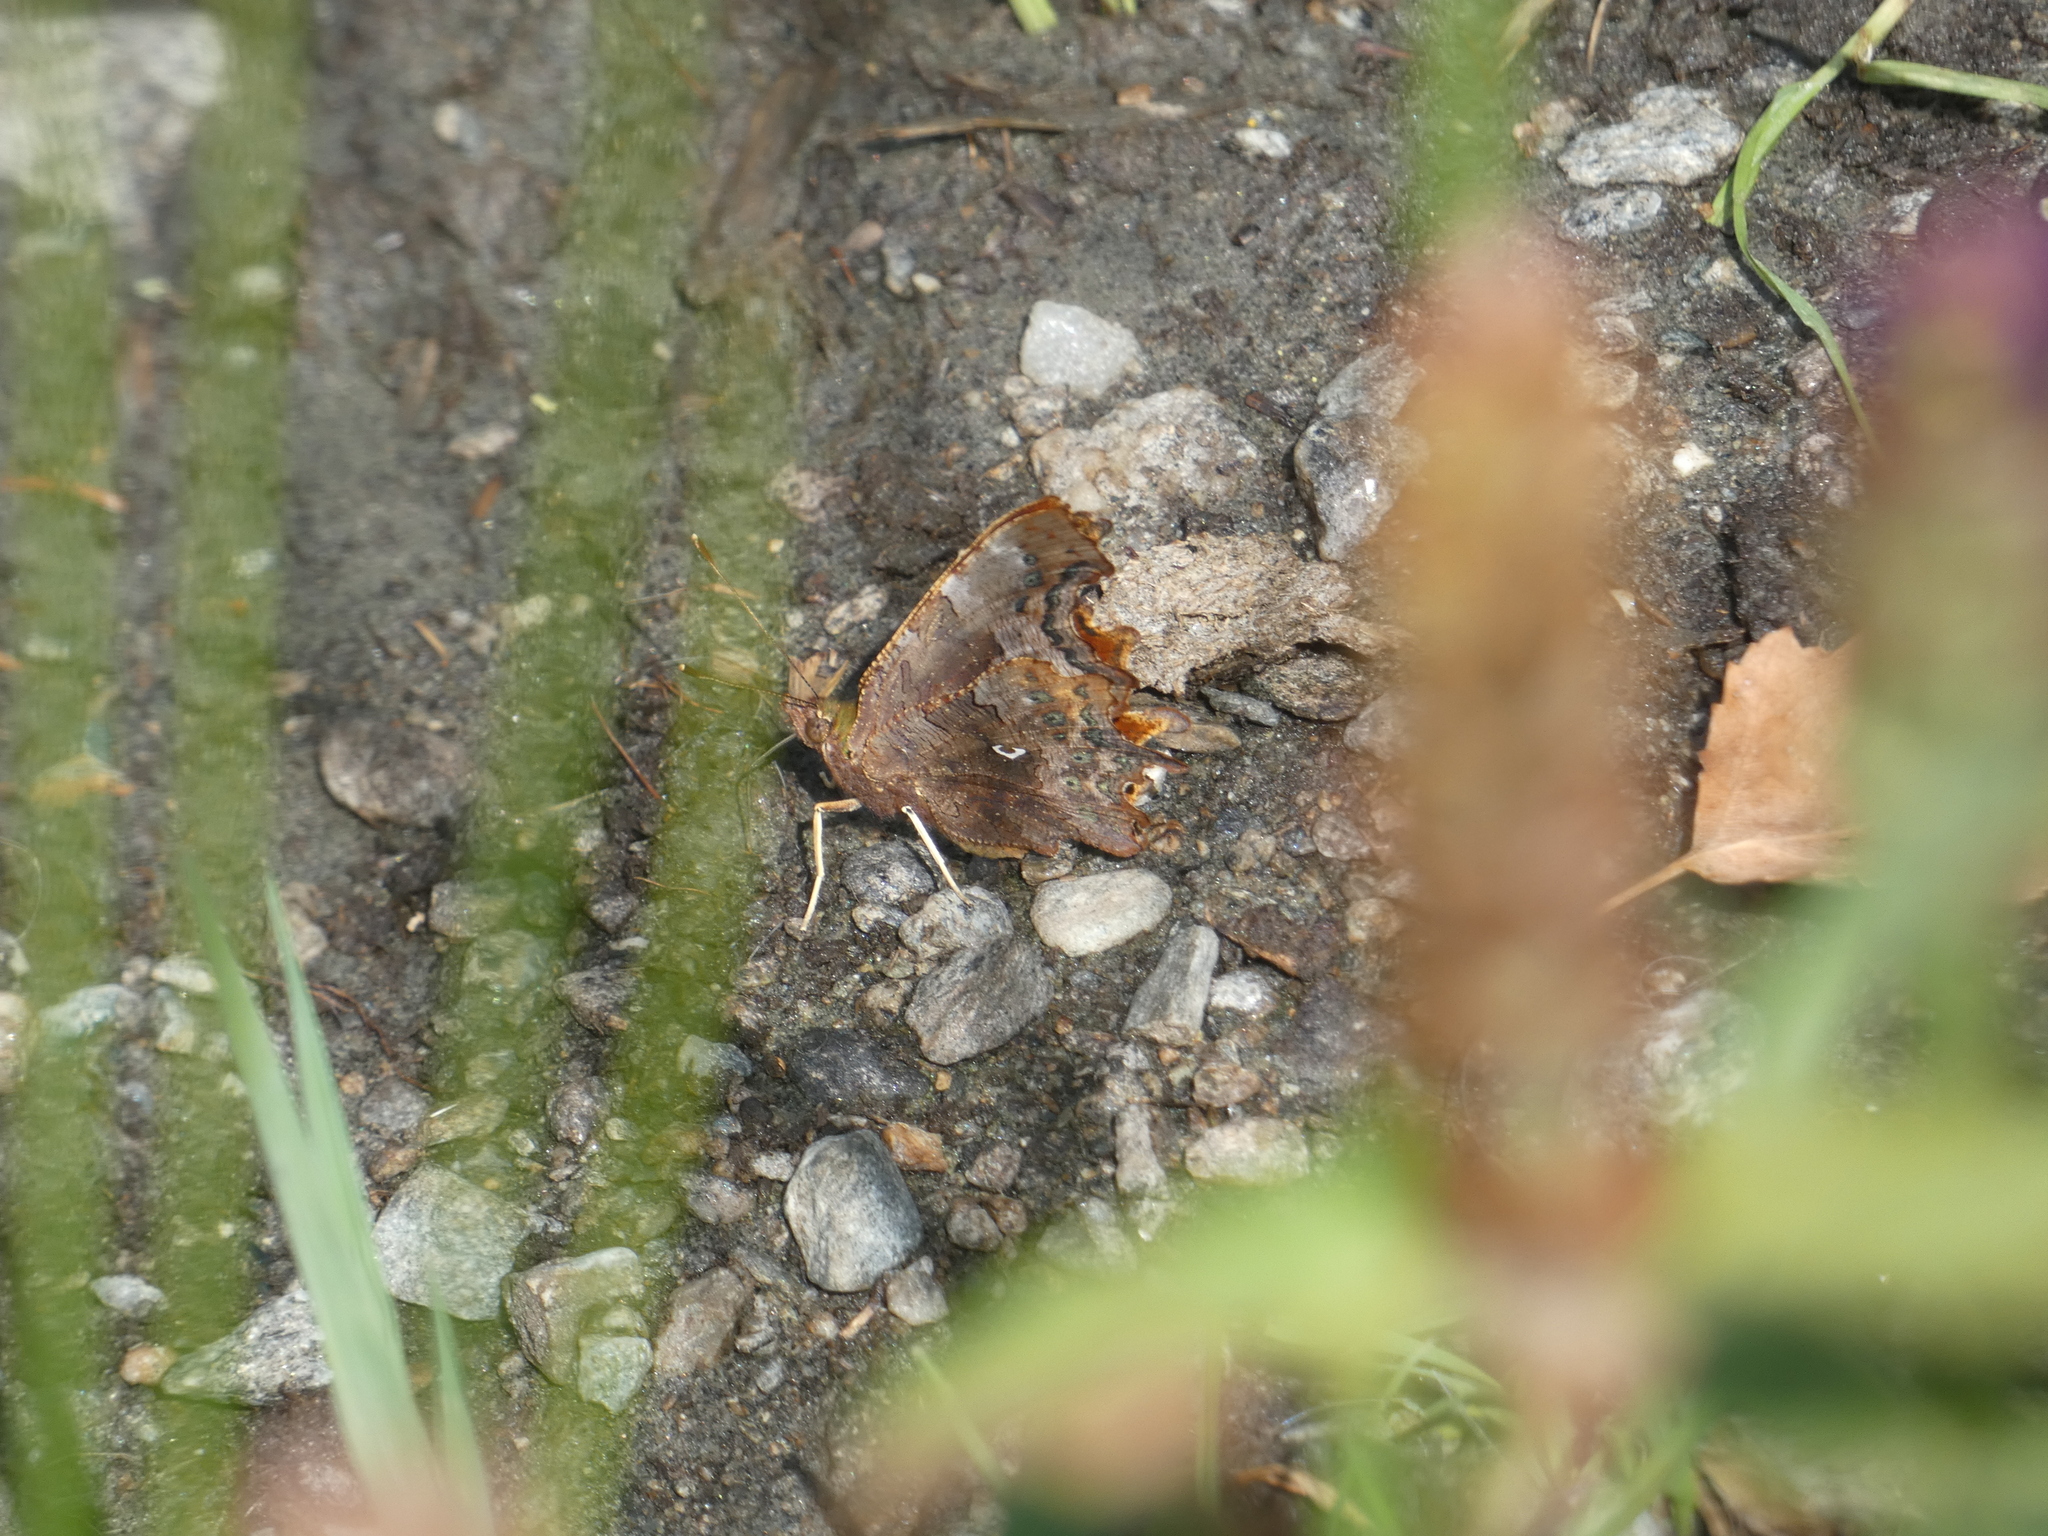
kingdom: Animalia
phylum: Arthropoda
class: Insecta
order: Lepidoptera
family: Nymphalidae
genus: Polygonia
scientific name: Polygonia c-album
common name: Comma
